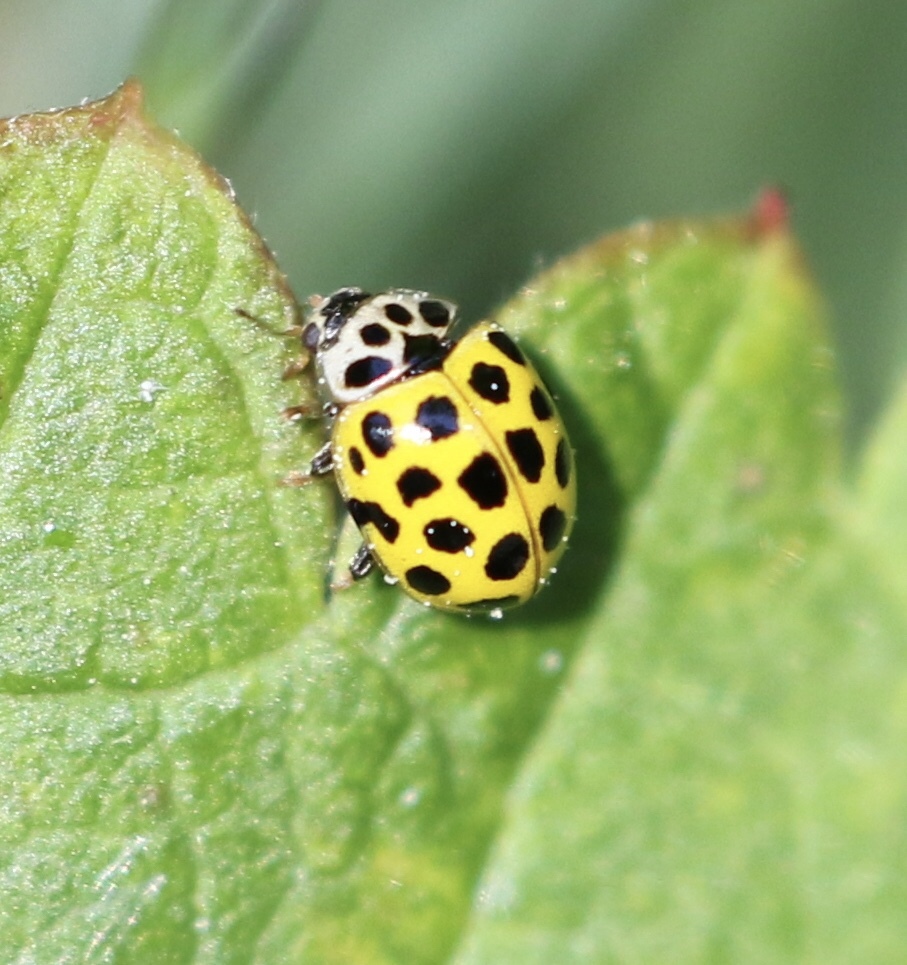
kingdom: Animalia
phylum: Arthropoda
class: Insecta
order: Coleoptera
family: Coccinellidae
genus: Psyllobora
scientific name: Psyllobora vigintiduopunctata
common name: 22-spot ladybird
